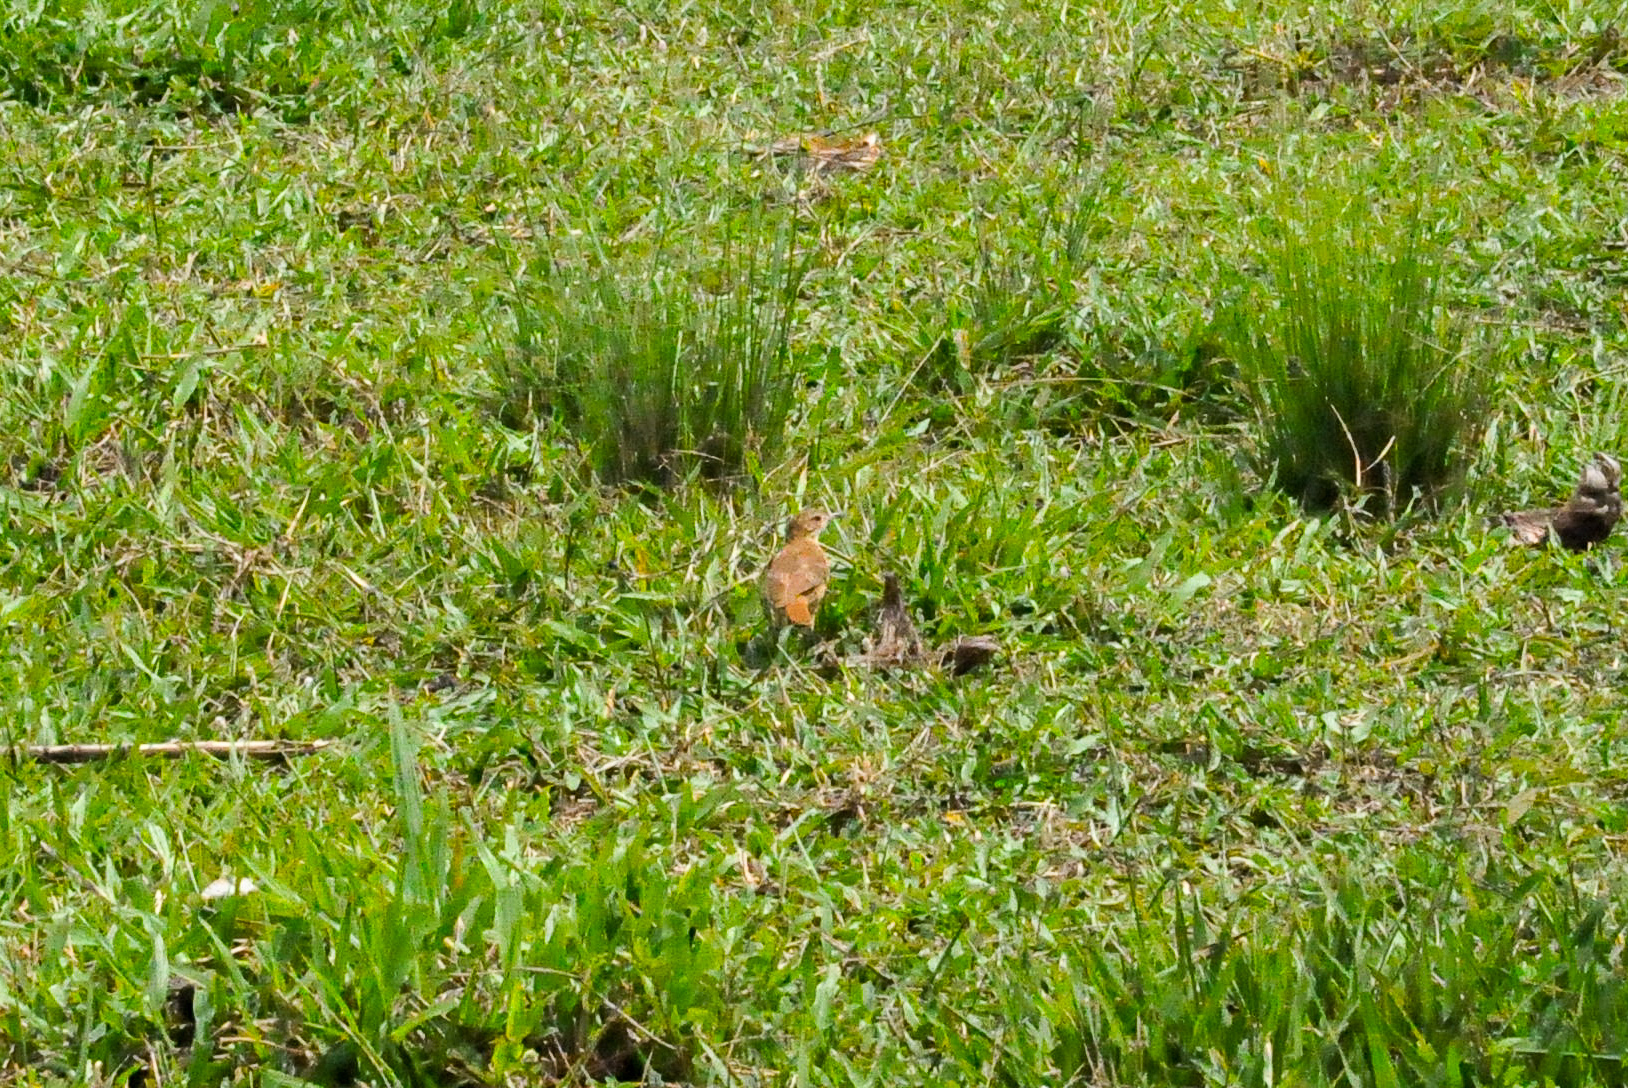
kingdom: Animalia
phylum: Chordata
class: Aves
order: Passeriformes
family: Furnariidae
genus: Furnarius
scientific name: Furnarius rufus
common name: Rufous hornero
